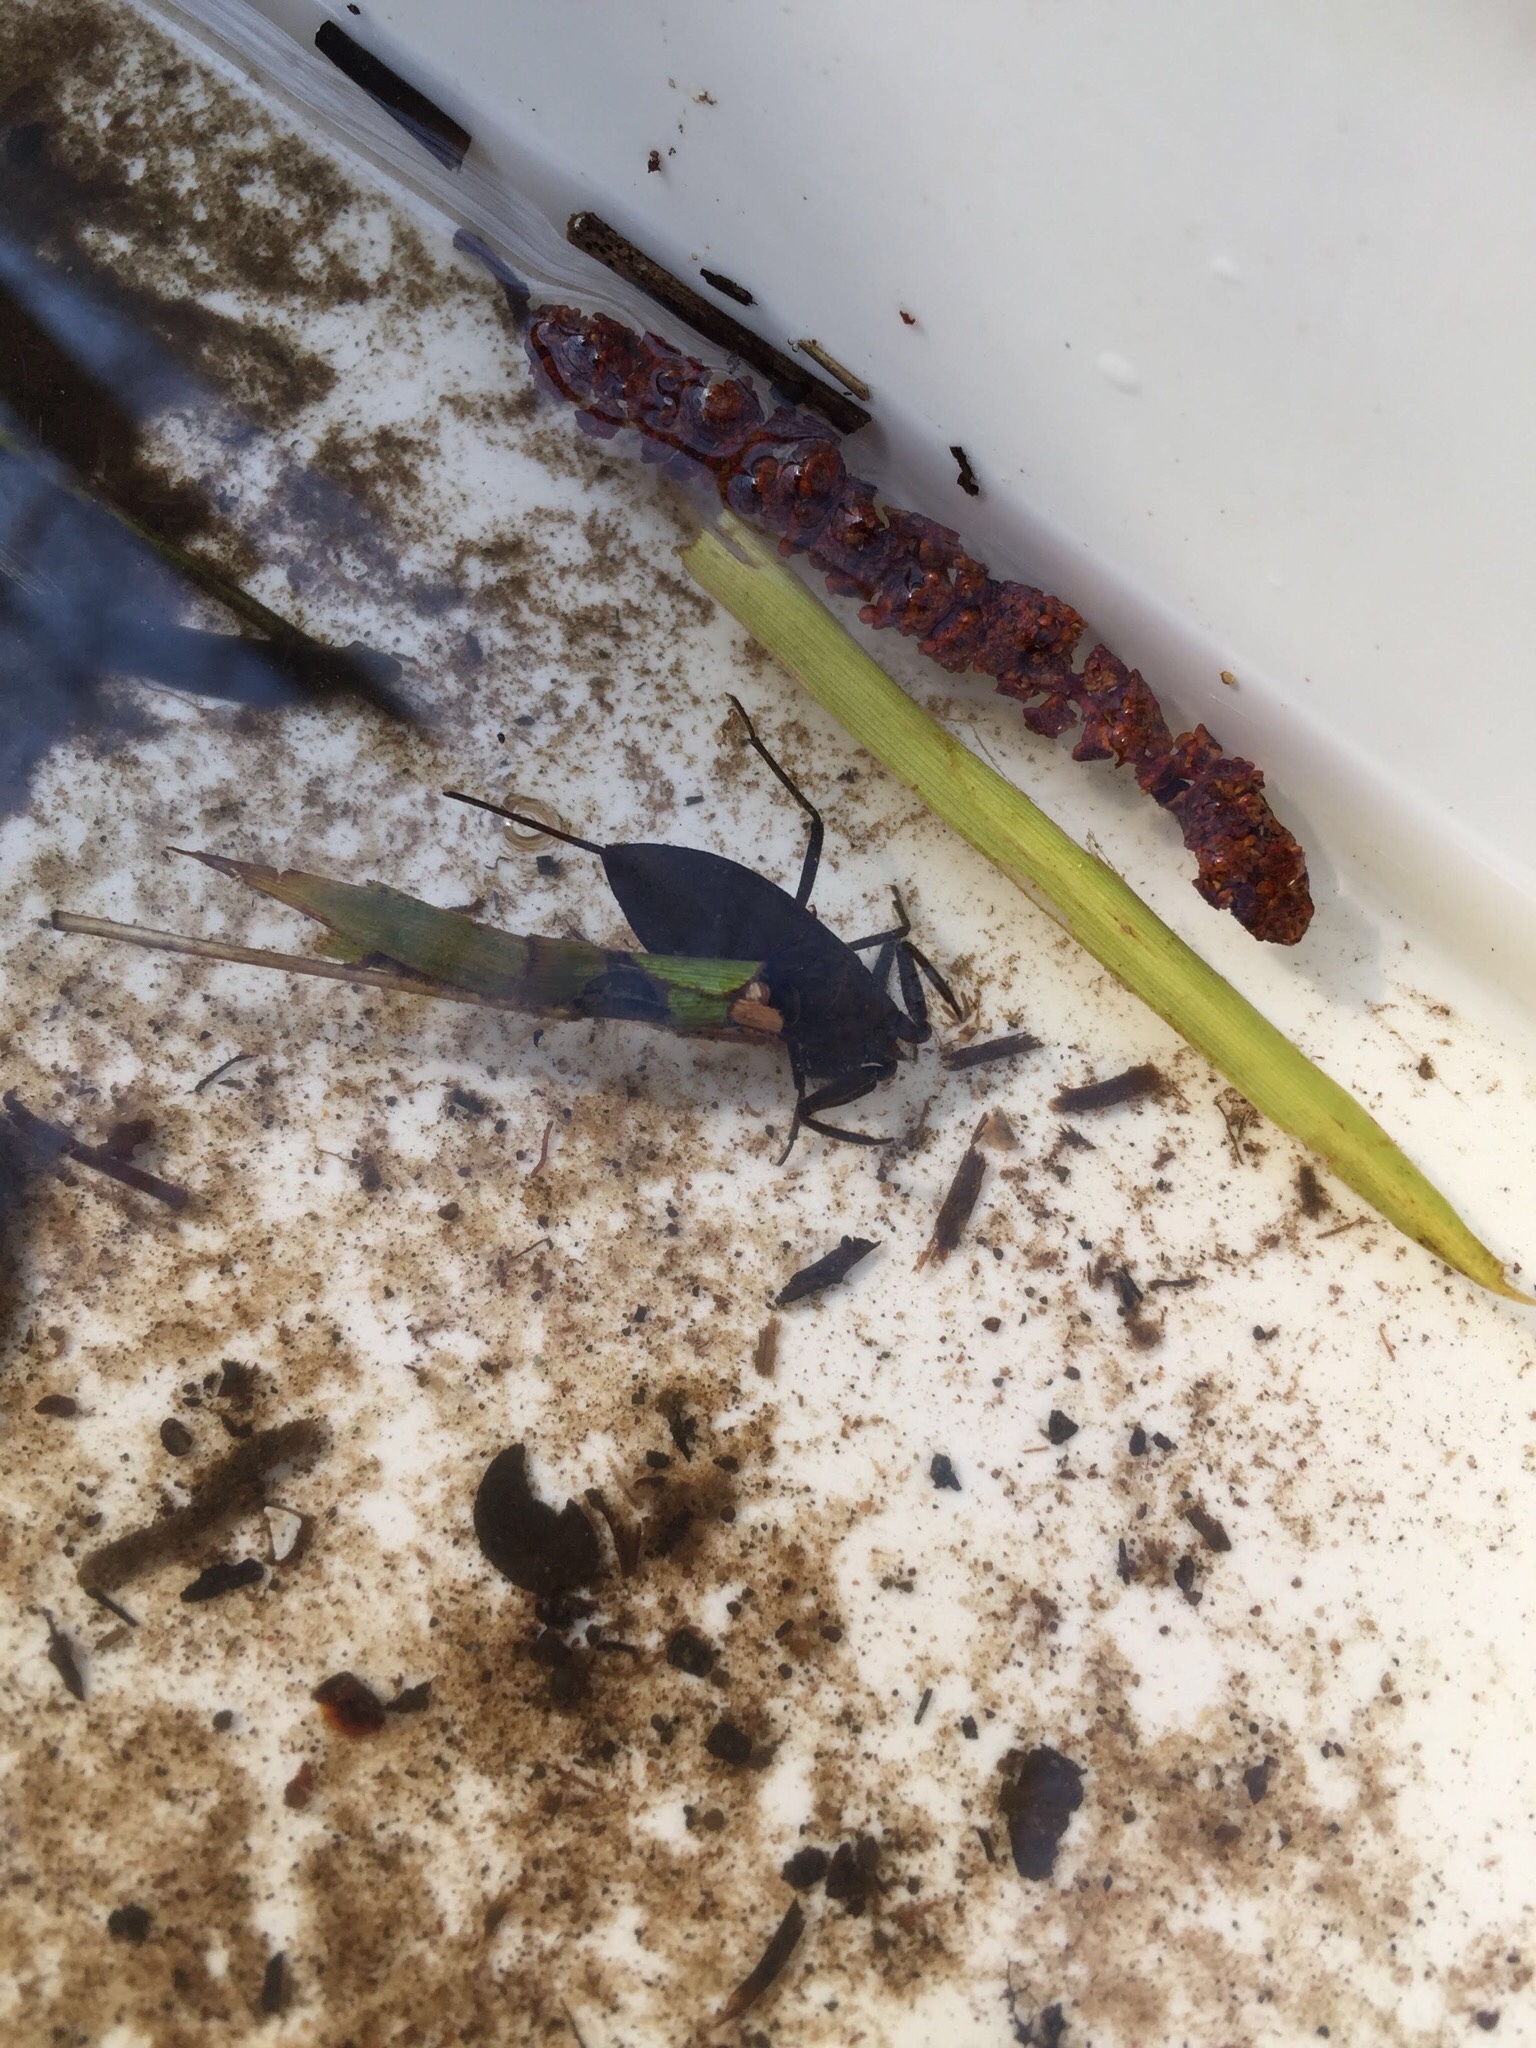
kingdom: Animalia
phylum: Arthropoda
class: Insecta
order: Hemiptera
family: Nepidae
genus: Nepa
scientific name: Nepa cinerea
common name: Water scorpion
